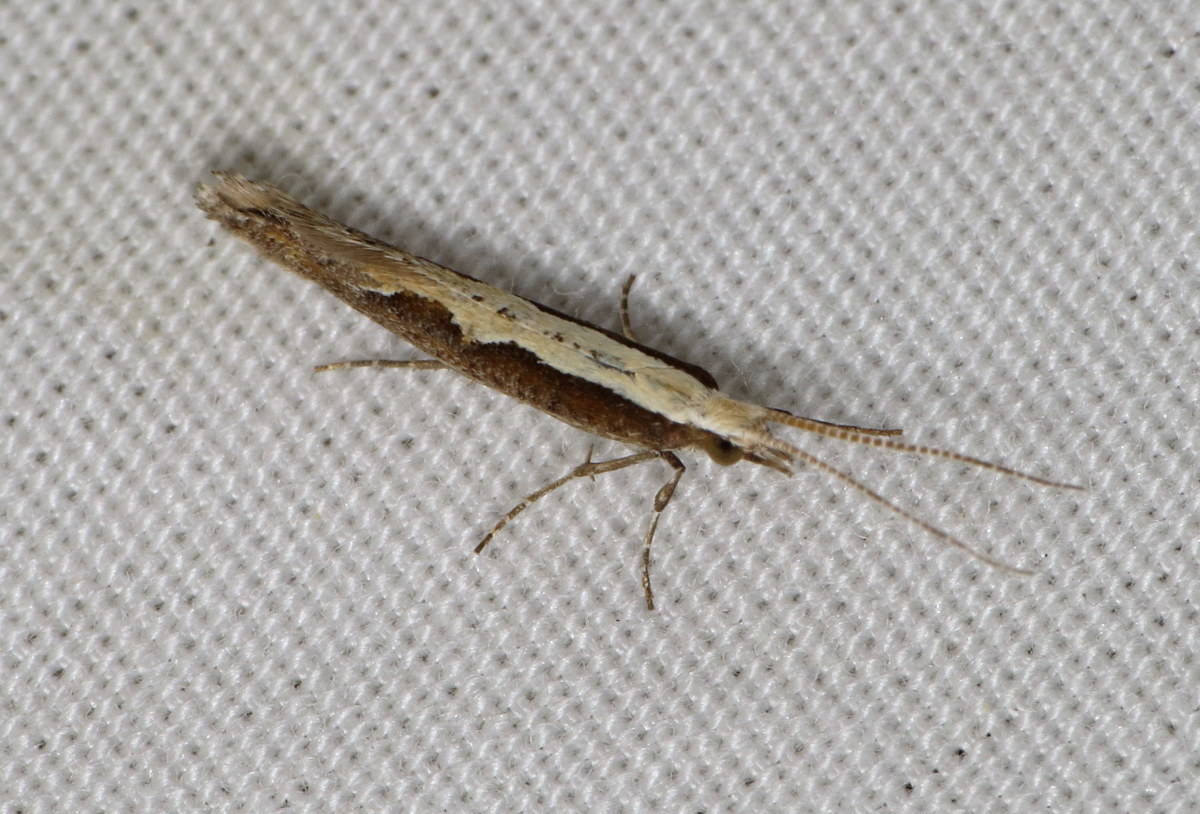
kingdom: Animalia
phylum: Arthropoda
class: Insecta
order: Lepidoptera
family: Plutellidae
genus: Plutella
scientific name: Plutella xylostella
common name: Diamond-back moth
